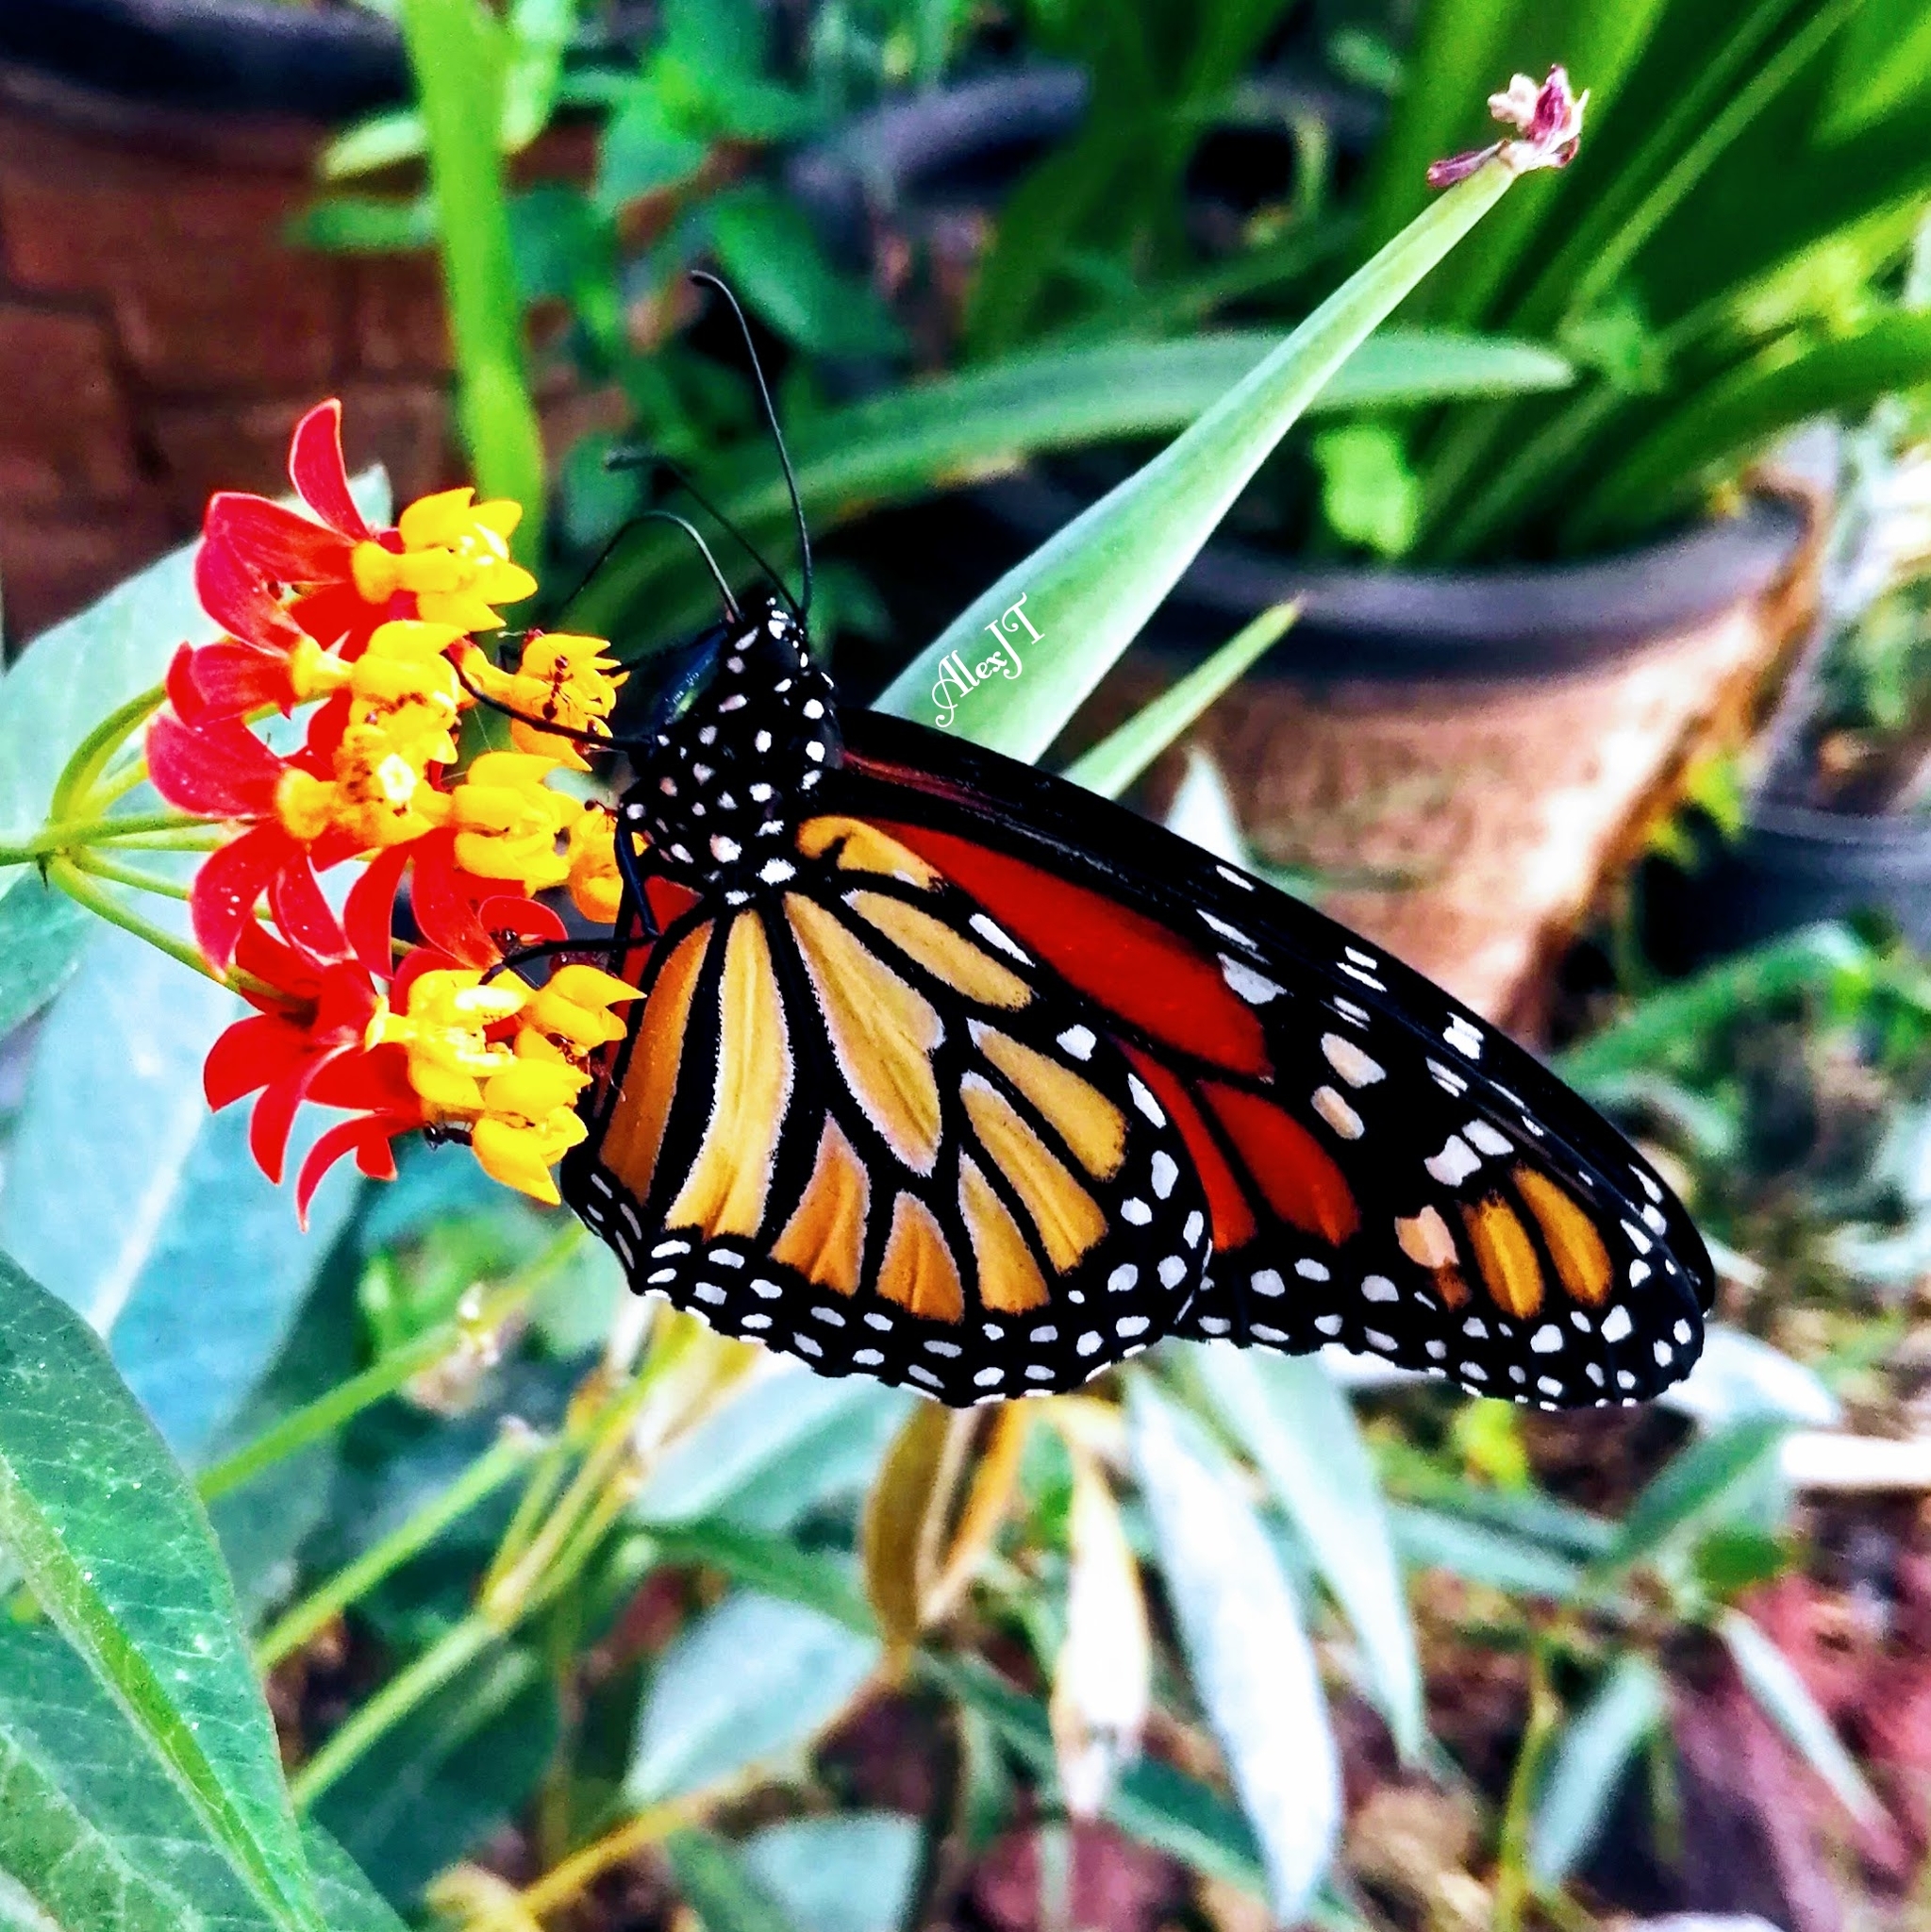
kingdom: Animalia
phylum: Arthropoda
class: Insecta
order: Lepidoptera
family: Nymphalidae
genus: Danaus
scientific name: Danaus plexippus
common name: Monarch
